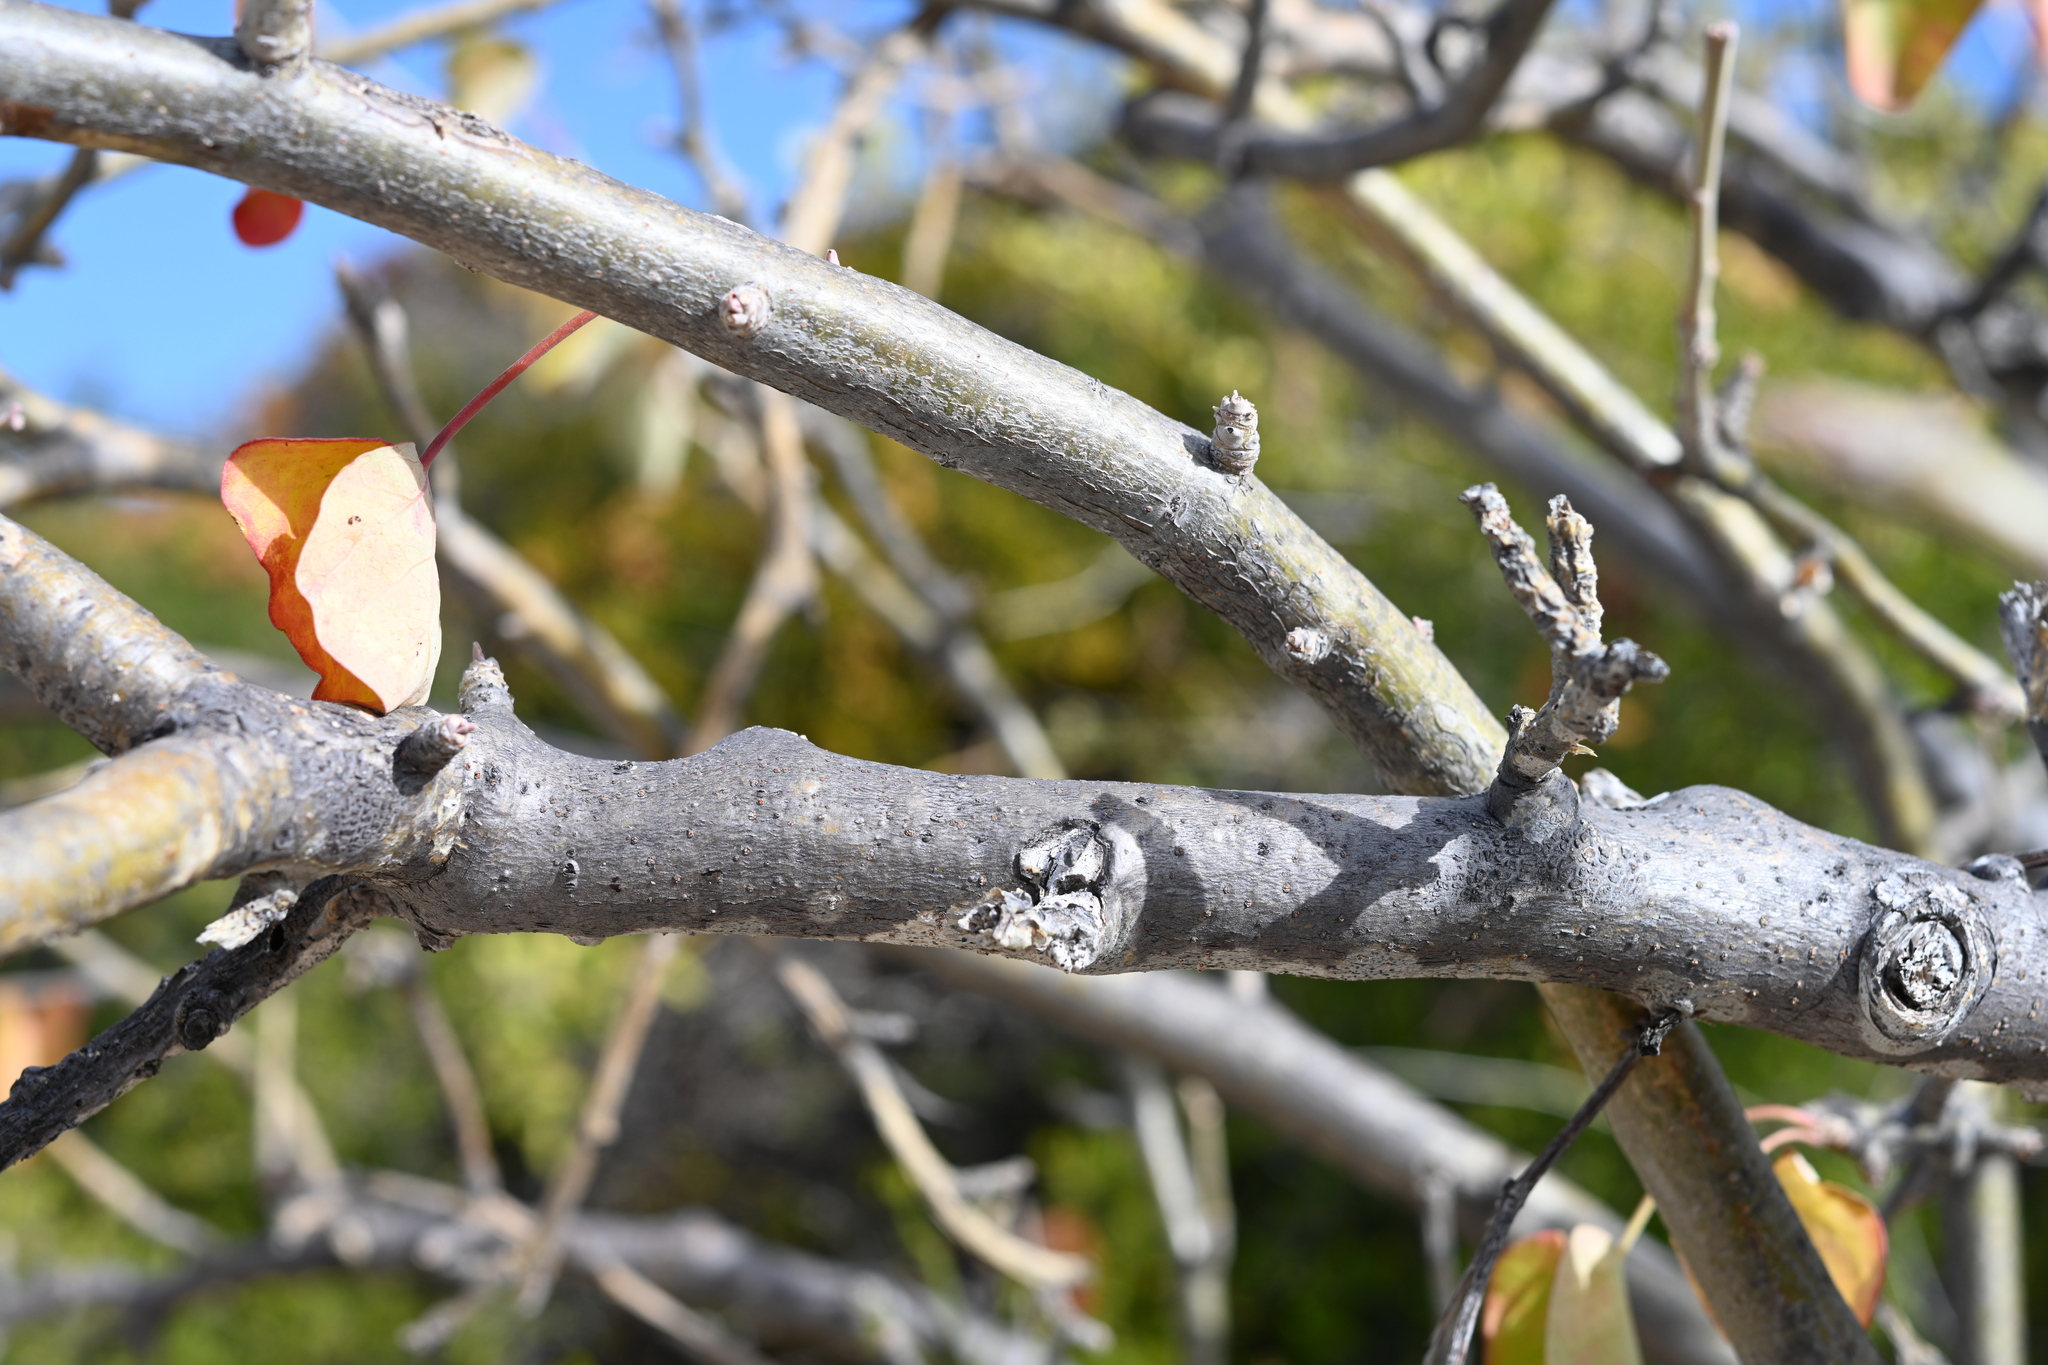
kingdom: Plantae
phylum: Tracheophyta
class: Magnoliopsida
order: Malpighiales
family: Euphorbiaceae
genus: Jatropha
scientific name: Jatropha cinerea
